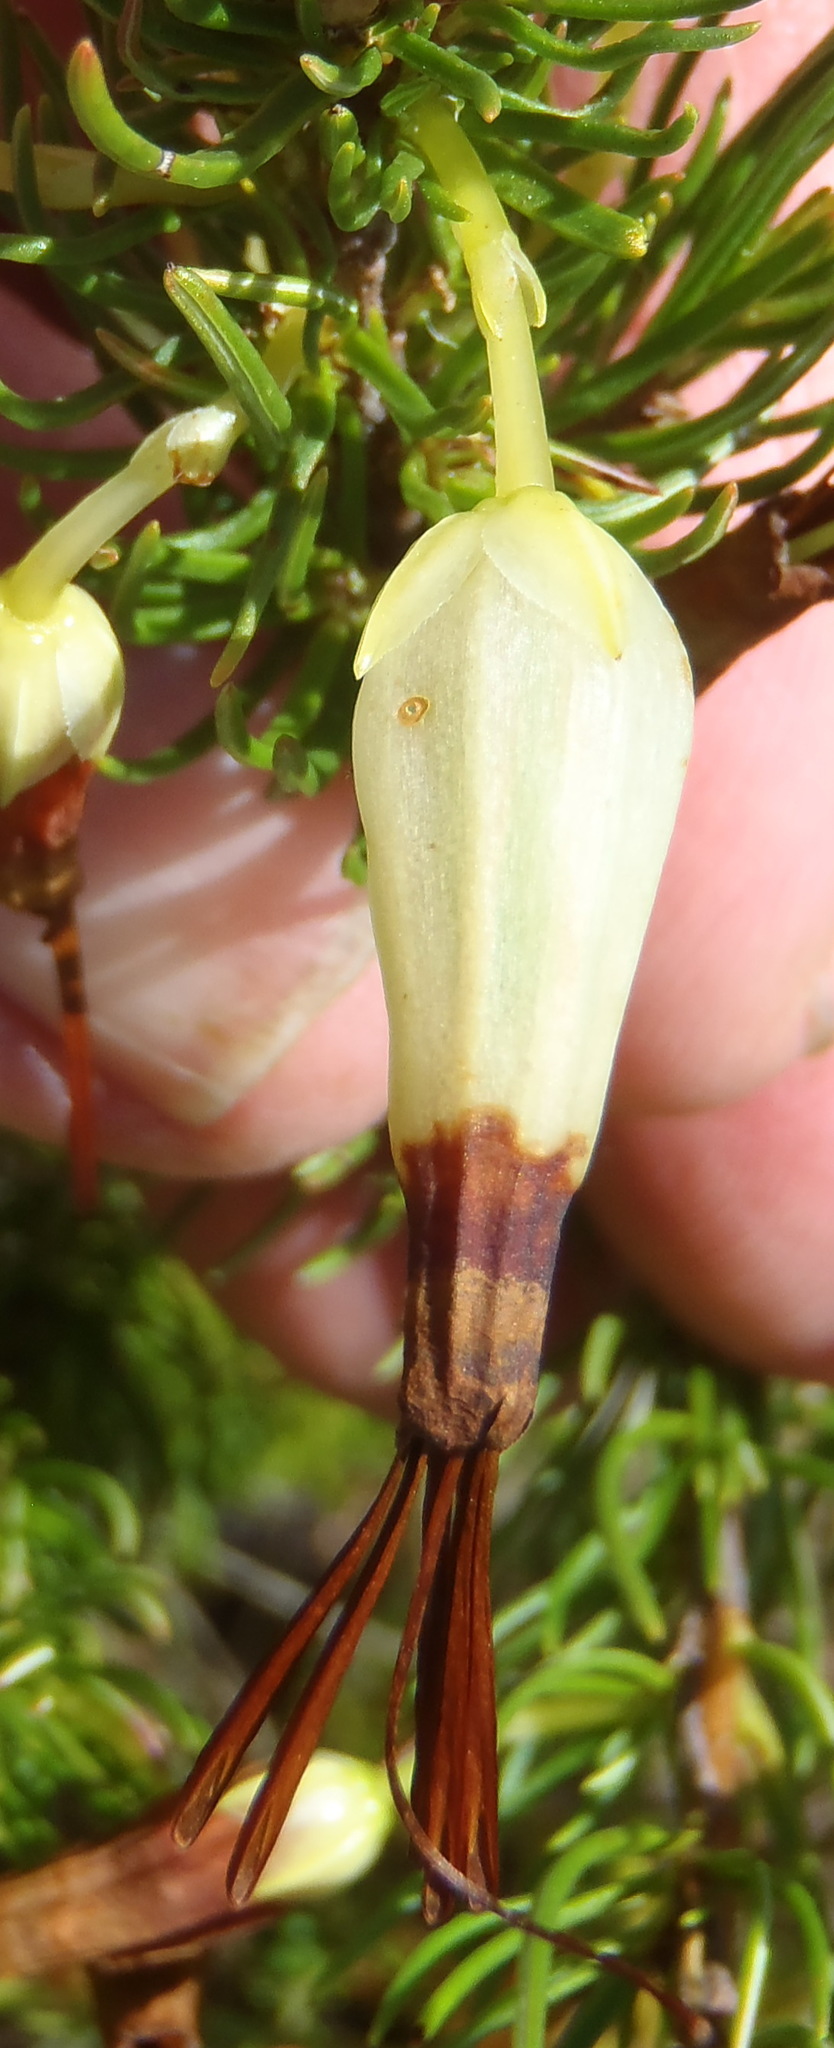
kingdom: Plantae
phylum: Tracheophyta
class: Magnoliopsida
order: Ericales
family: Ericaceae
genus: Erica
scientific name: Erica plukenetii
